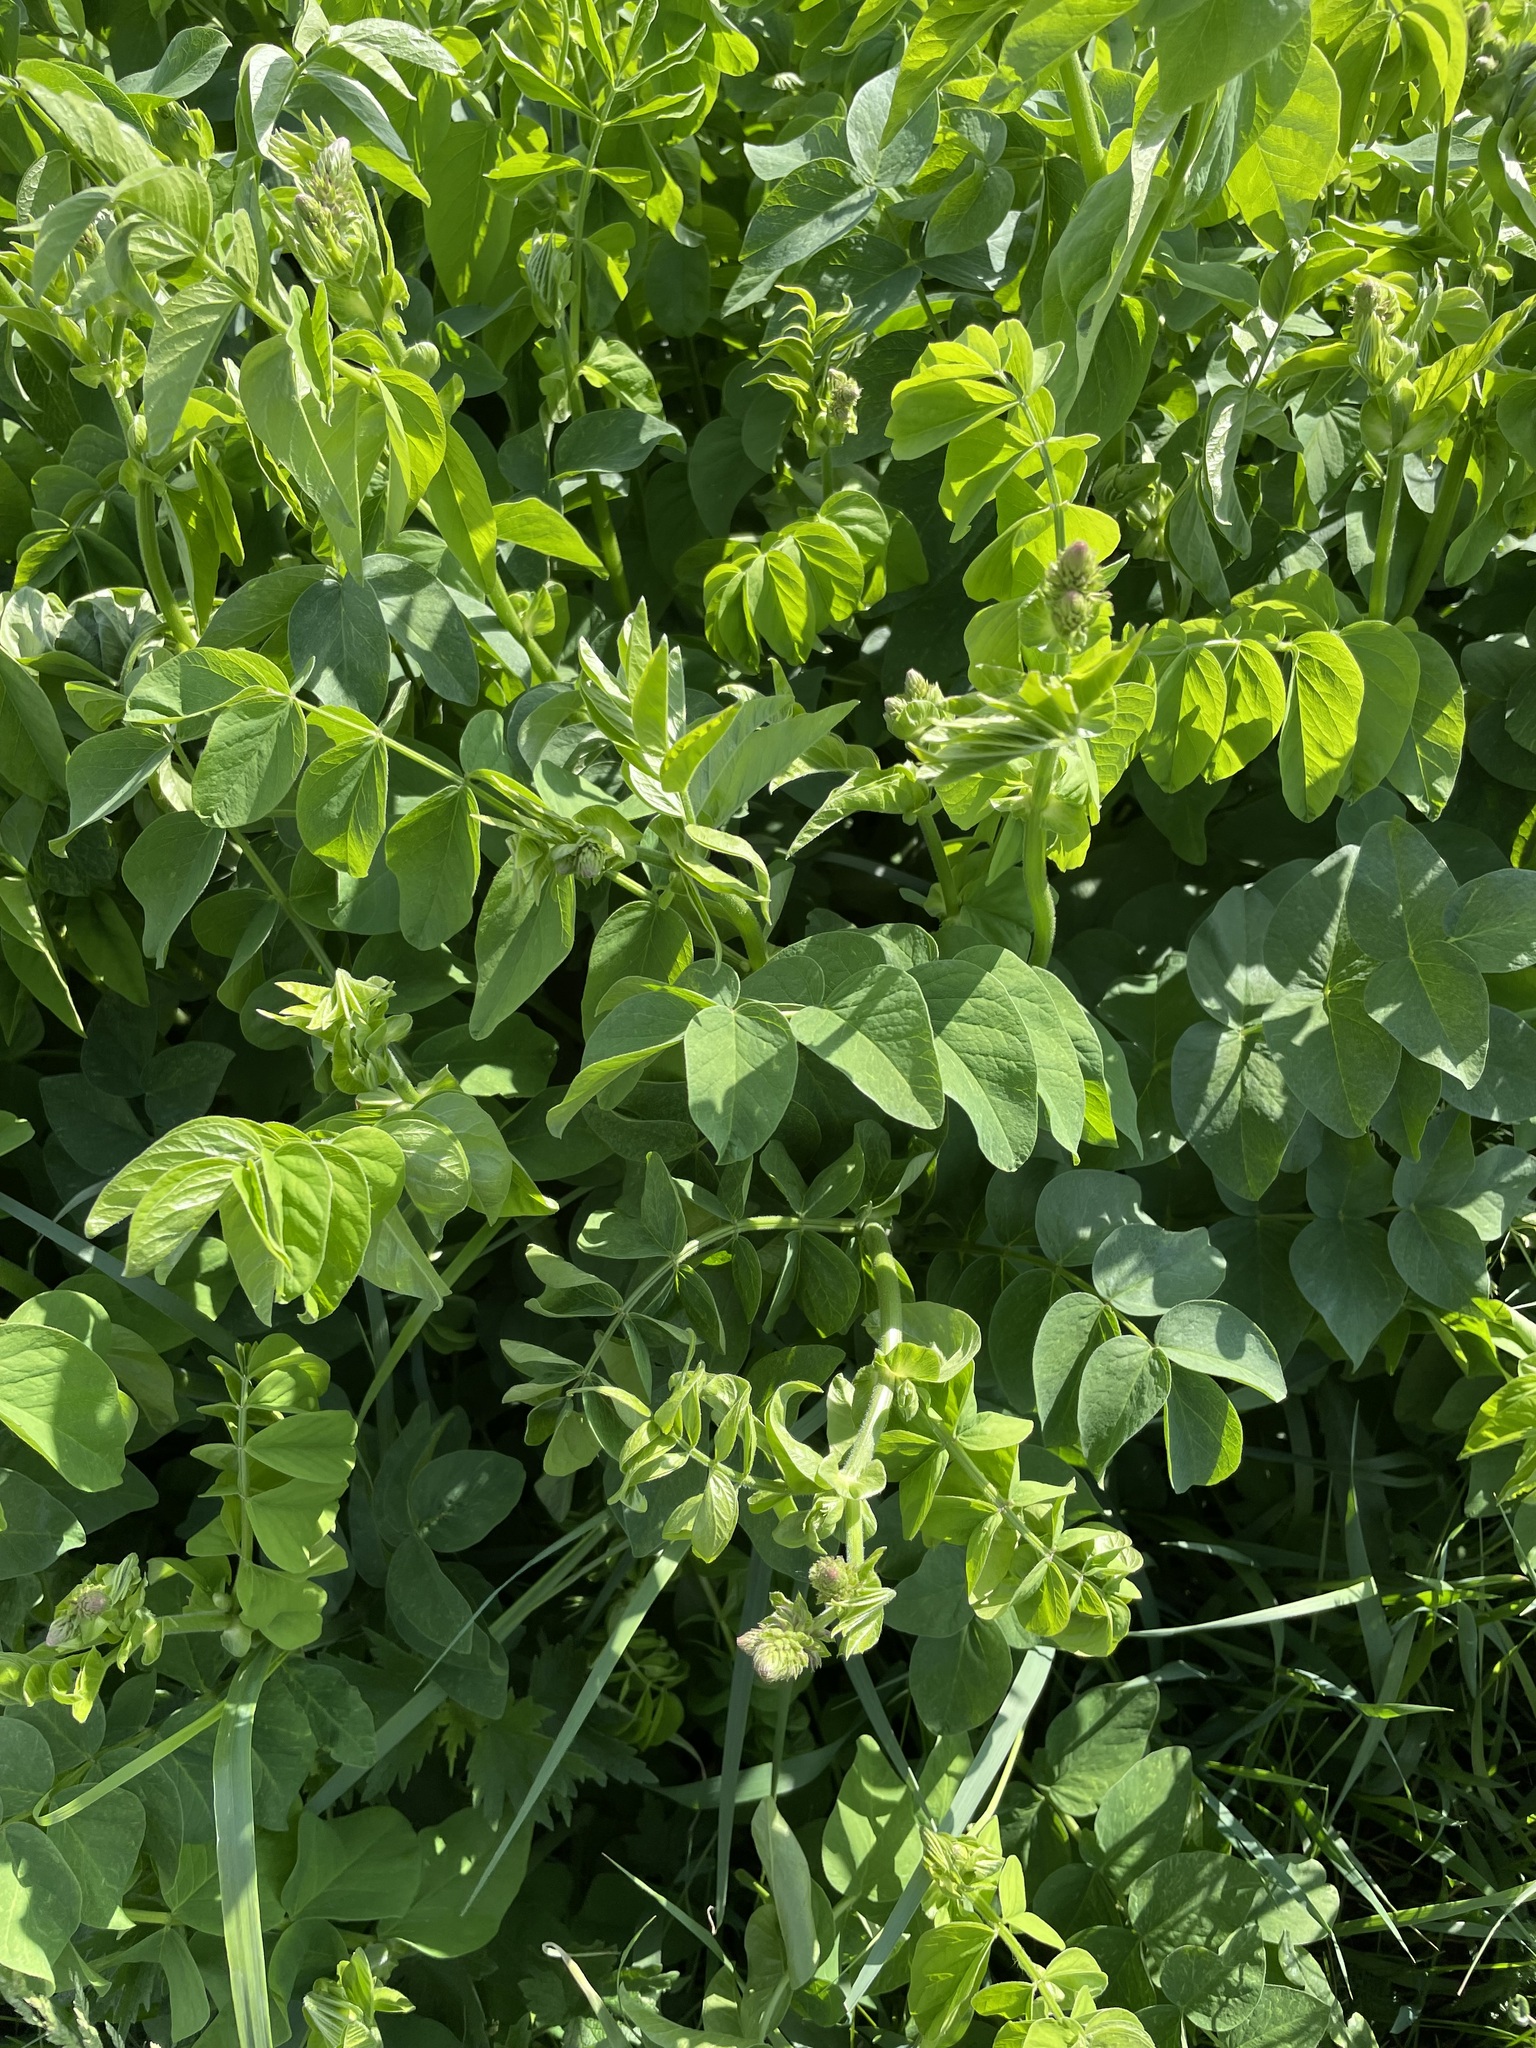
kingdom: Plantae
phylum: Tracheophyta
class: Magnoliopsida
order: Fabales
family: Fabaceae
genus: Galega
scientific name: Galega orientalis
